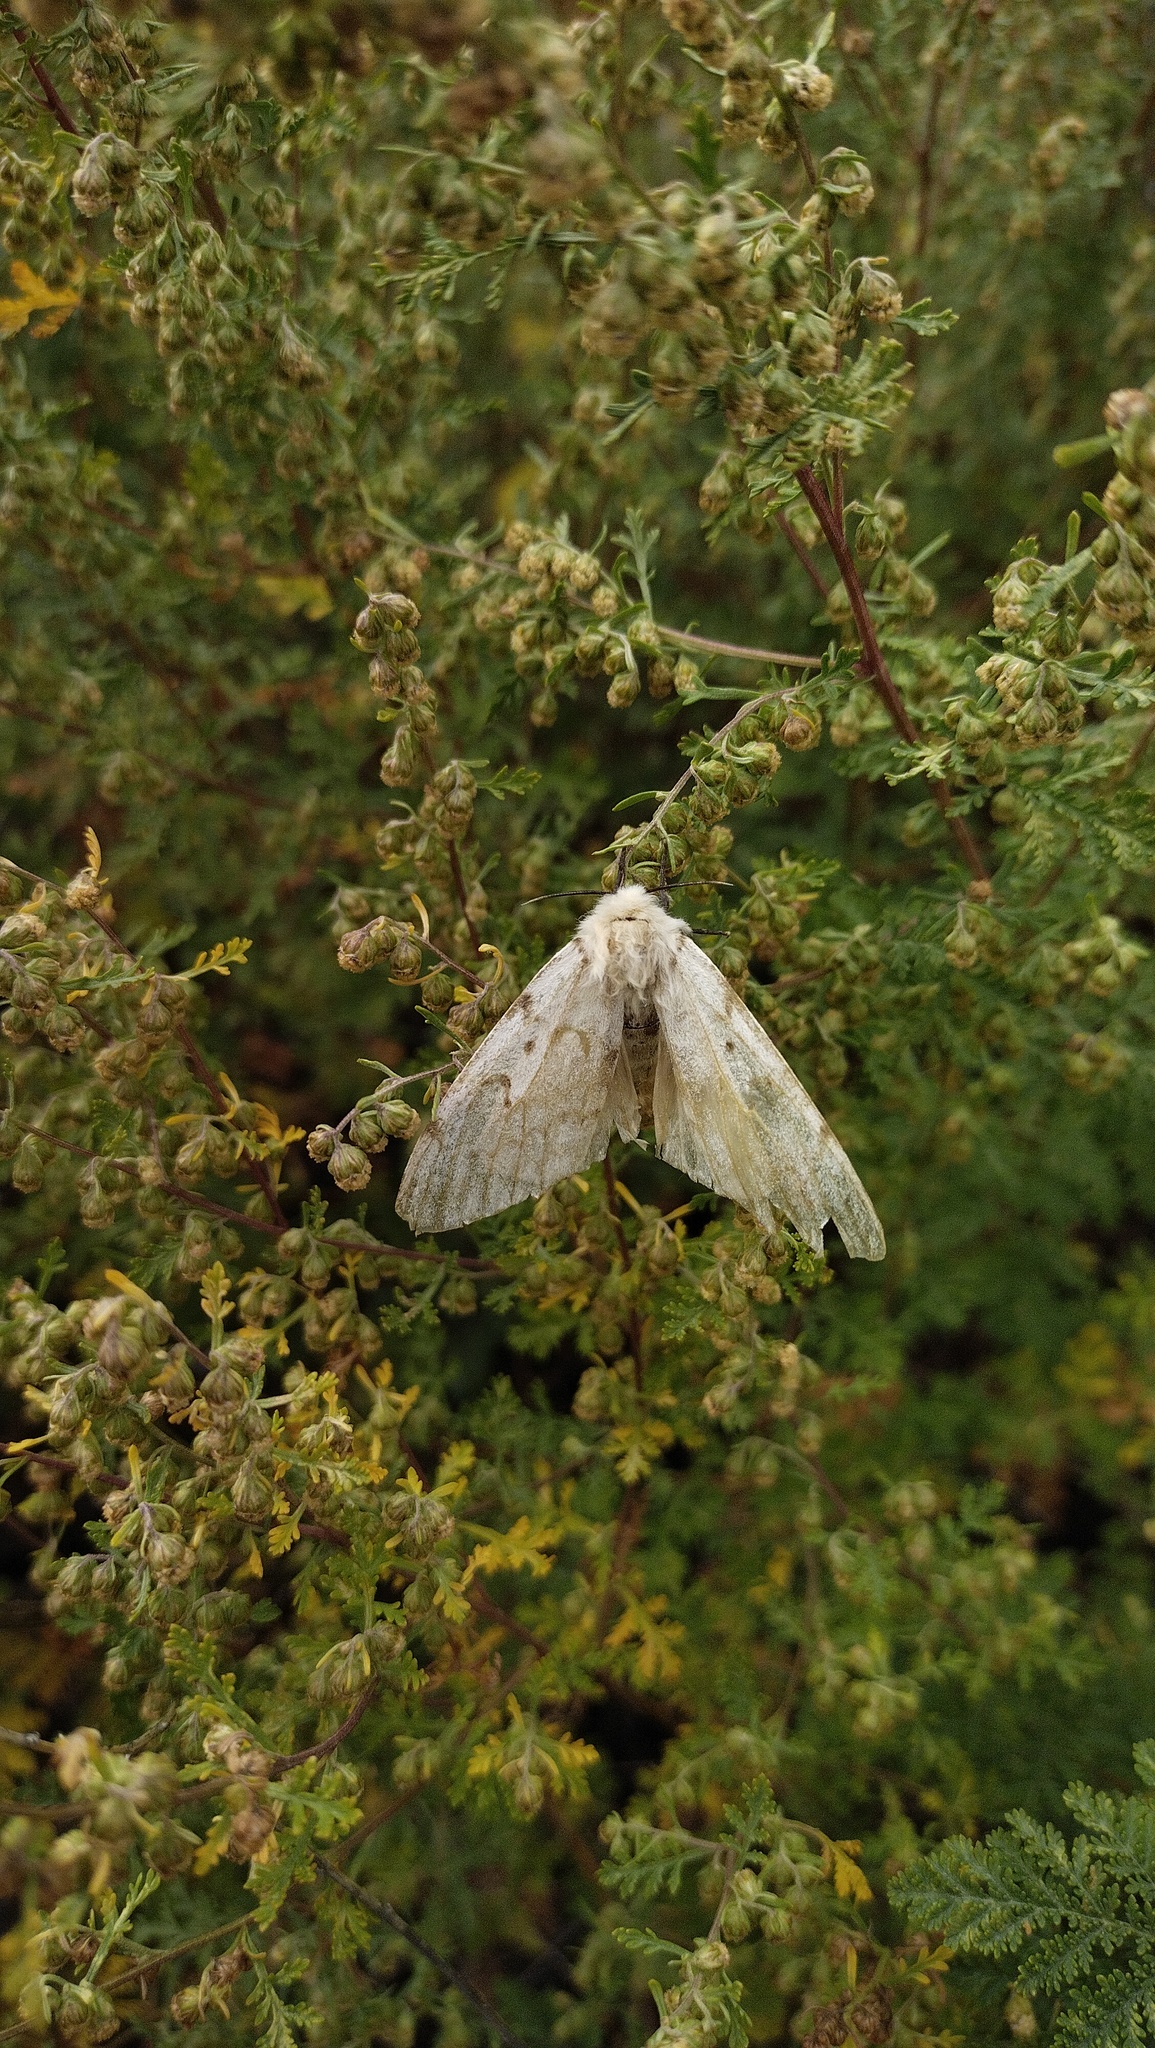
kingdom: Animalia
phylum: Arthropoda
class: Insecta
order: Lepidoptera
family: Erebidae
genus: Lymantria
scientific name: Lymantria dispar
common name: Gypsy moth
